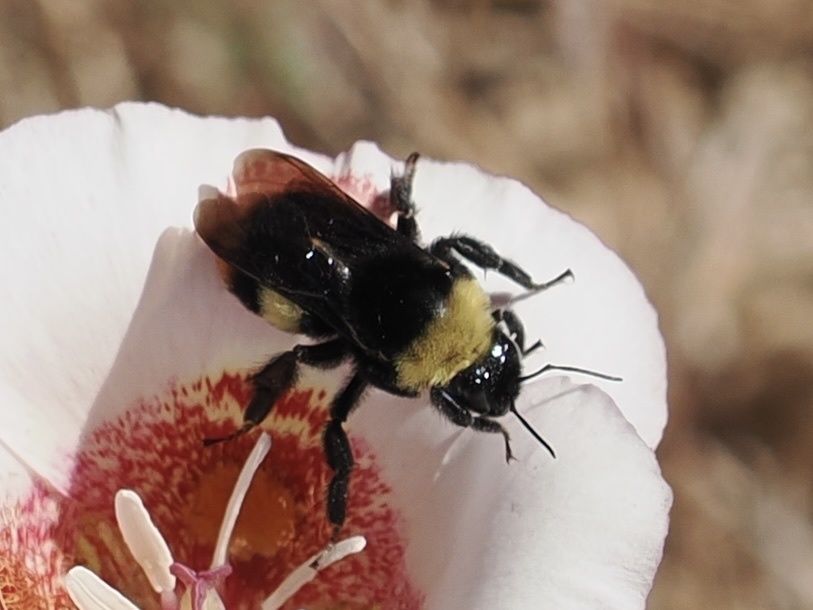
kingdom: Animalia
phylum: Arthropoda
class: Insecta
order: Hymenoptera
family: Apidae
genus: Bombus
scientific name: Bombus crotchii
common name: Crotch bumble bee
